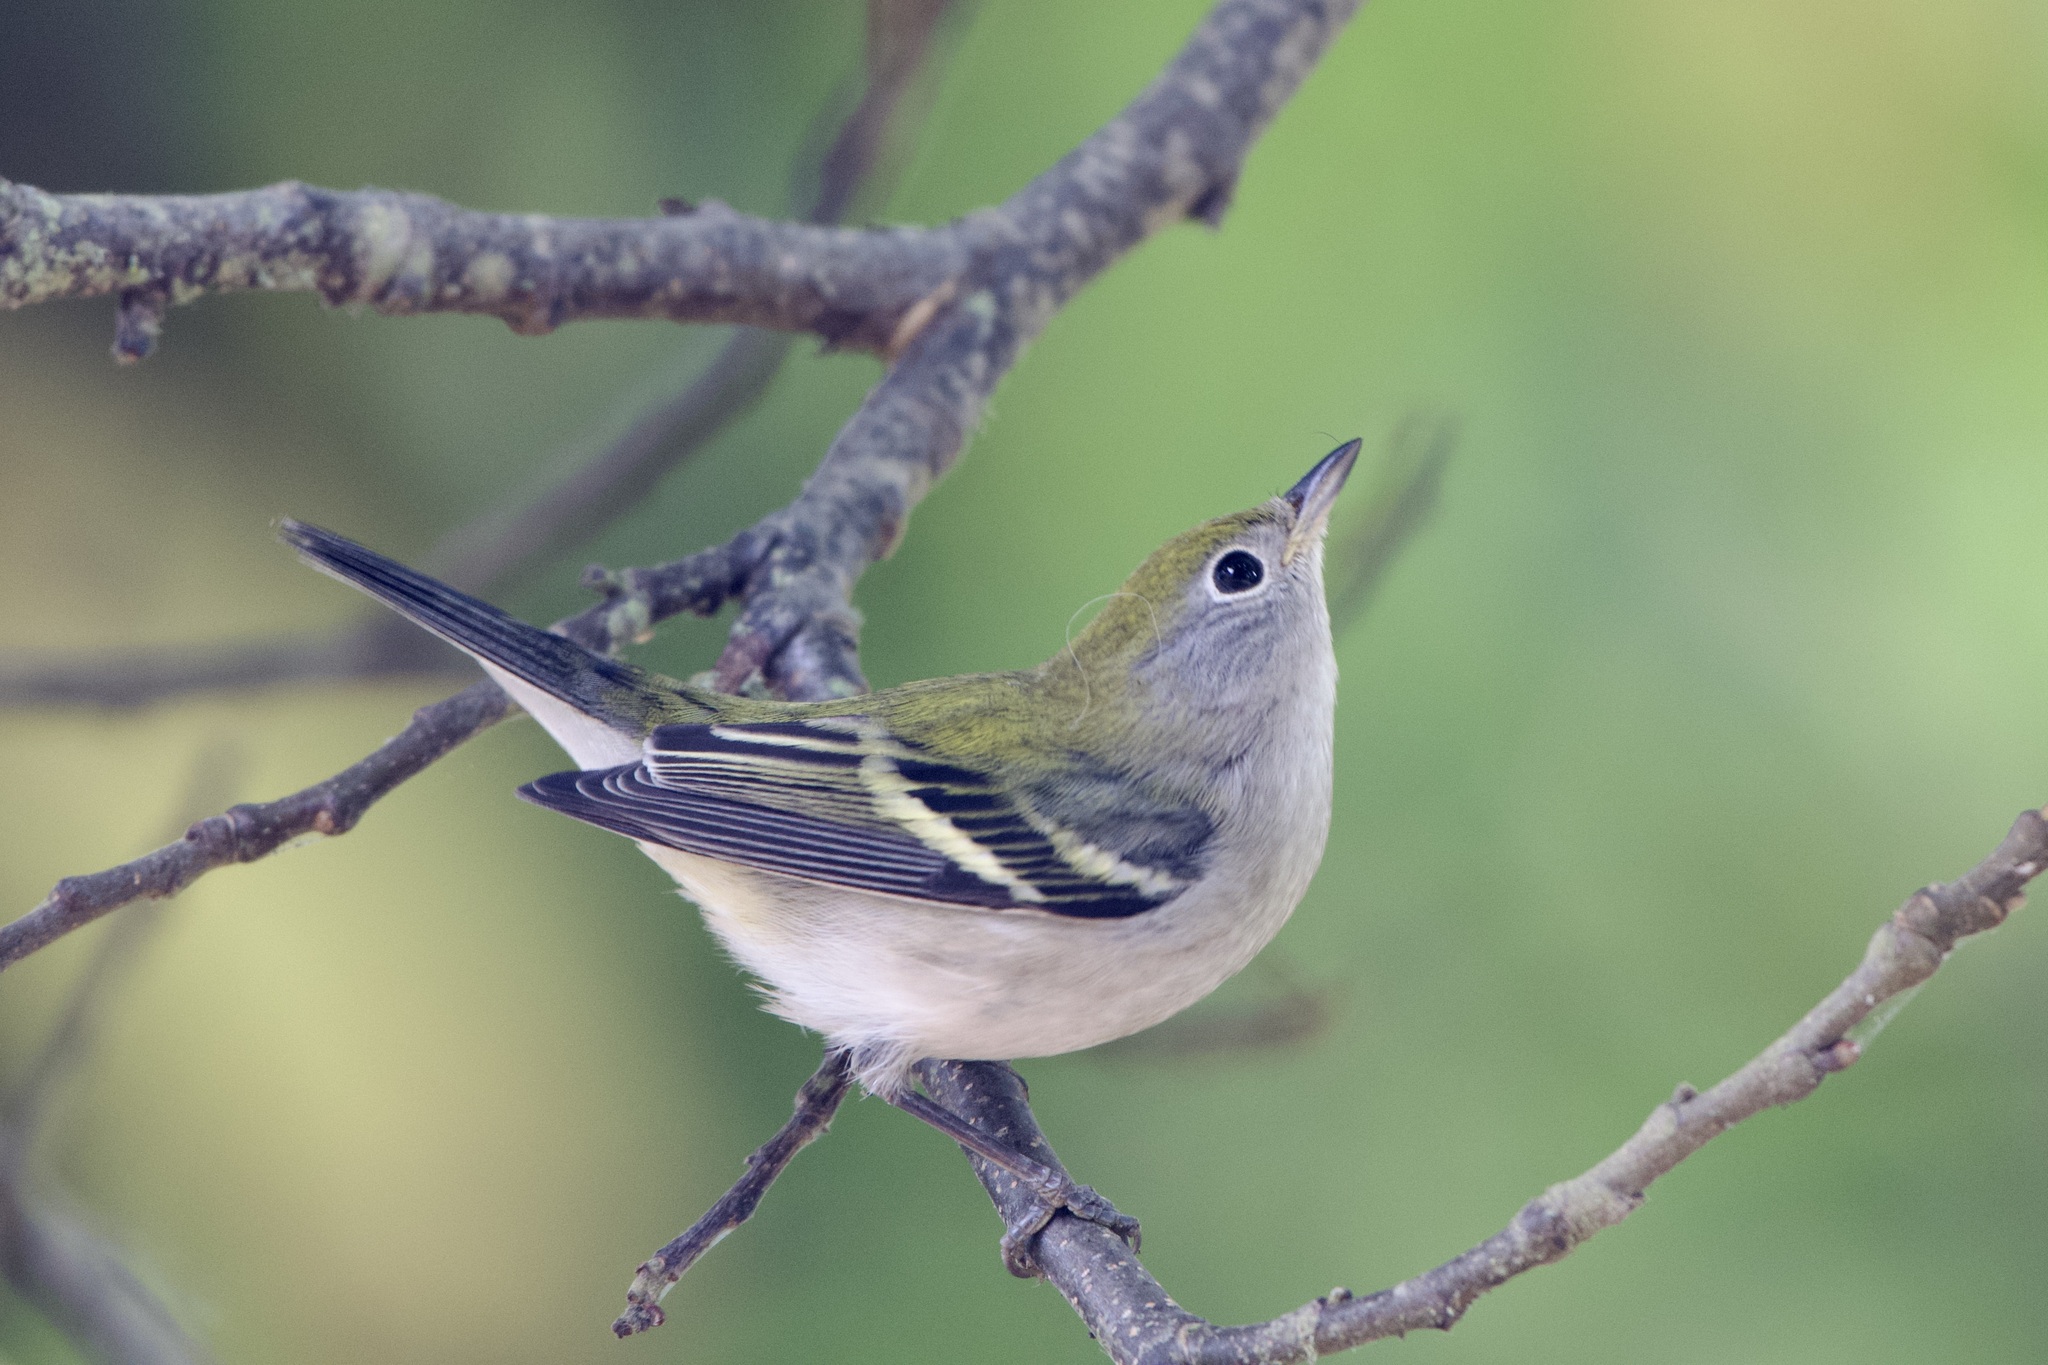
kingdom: Animalia
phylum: Chordata
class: Aves
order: Passeriformes
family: Parulidae
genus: Setophaga
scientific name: Setophaga pensylvanica
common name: Chestnut-sided warbler
